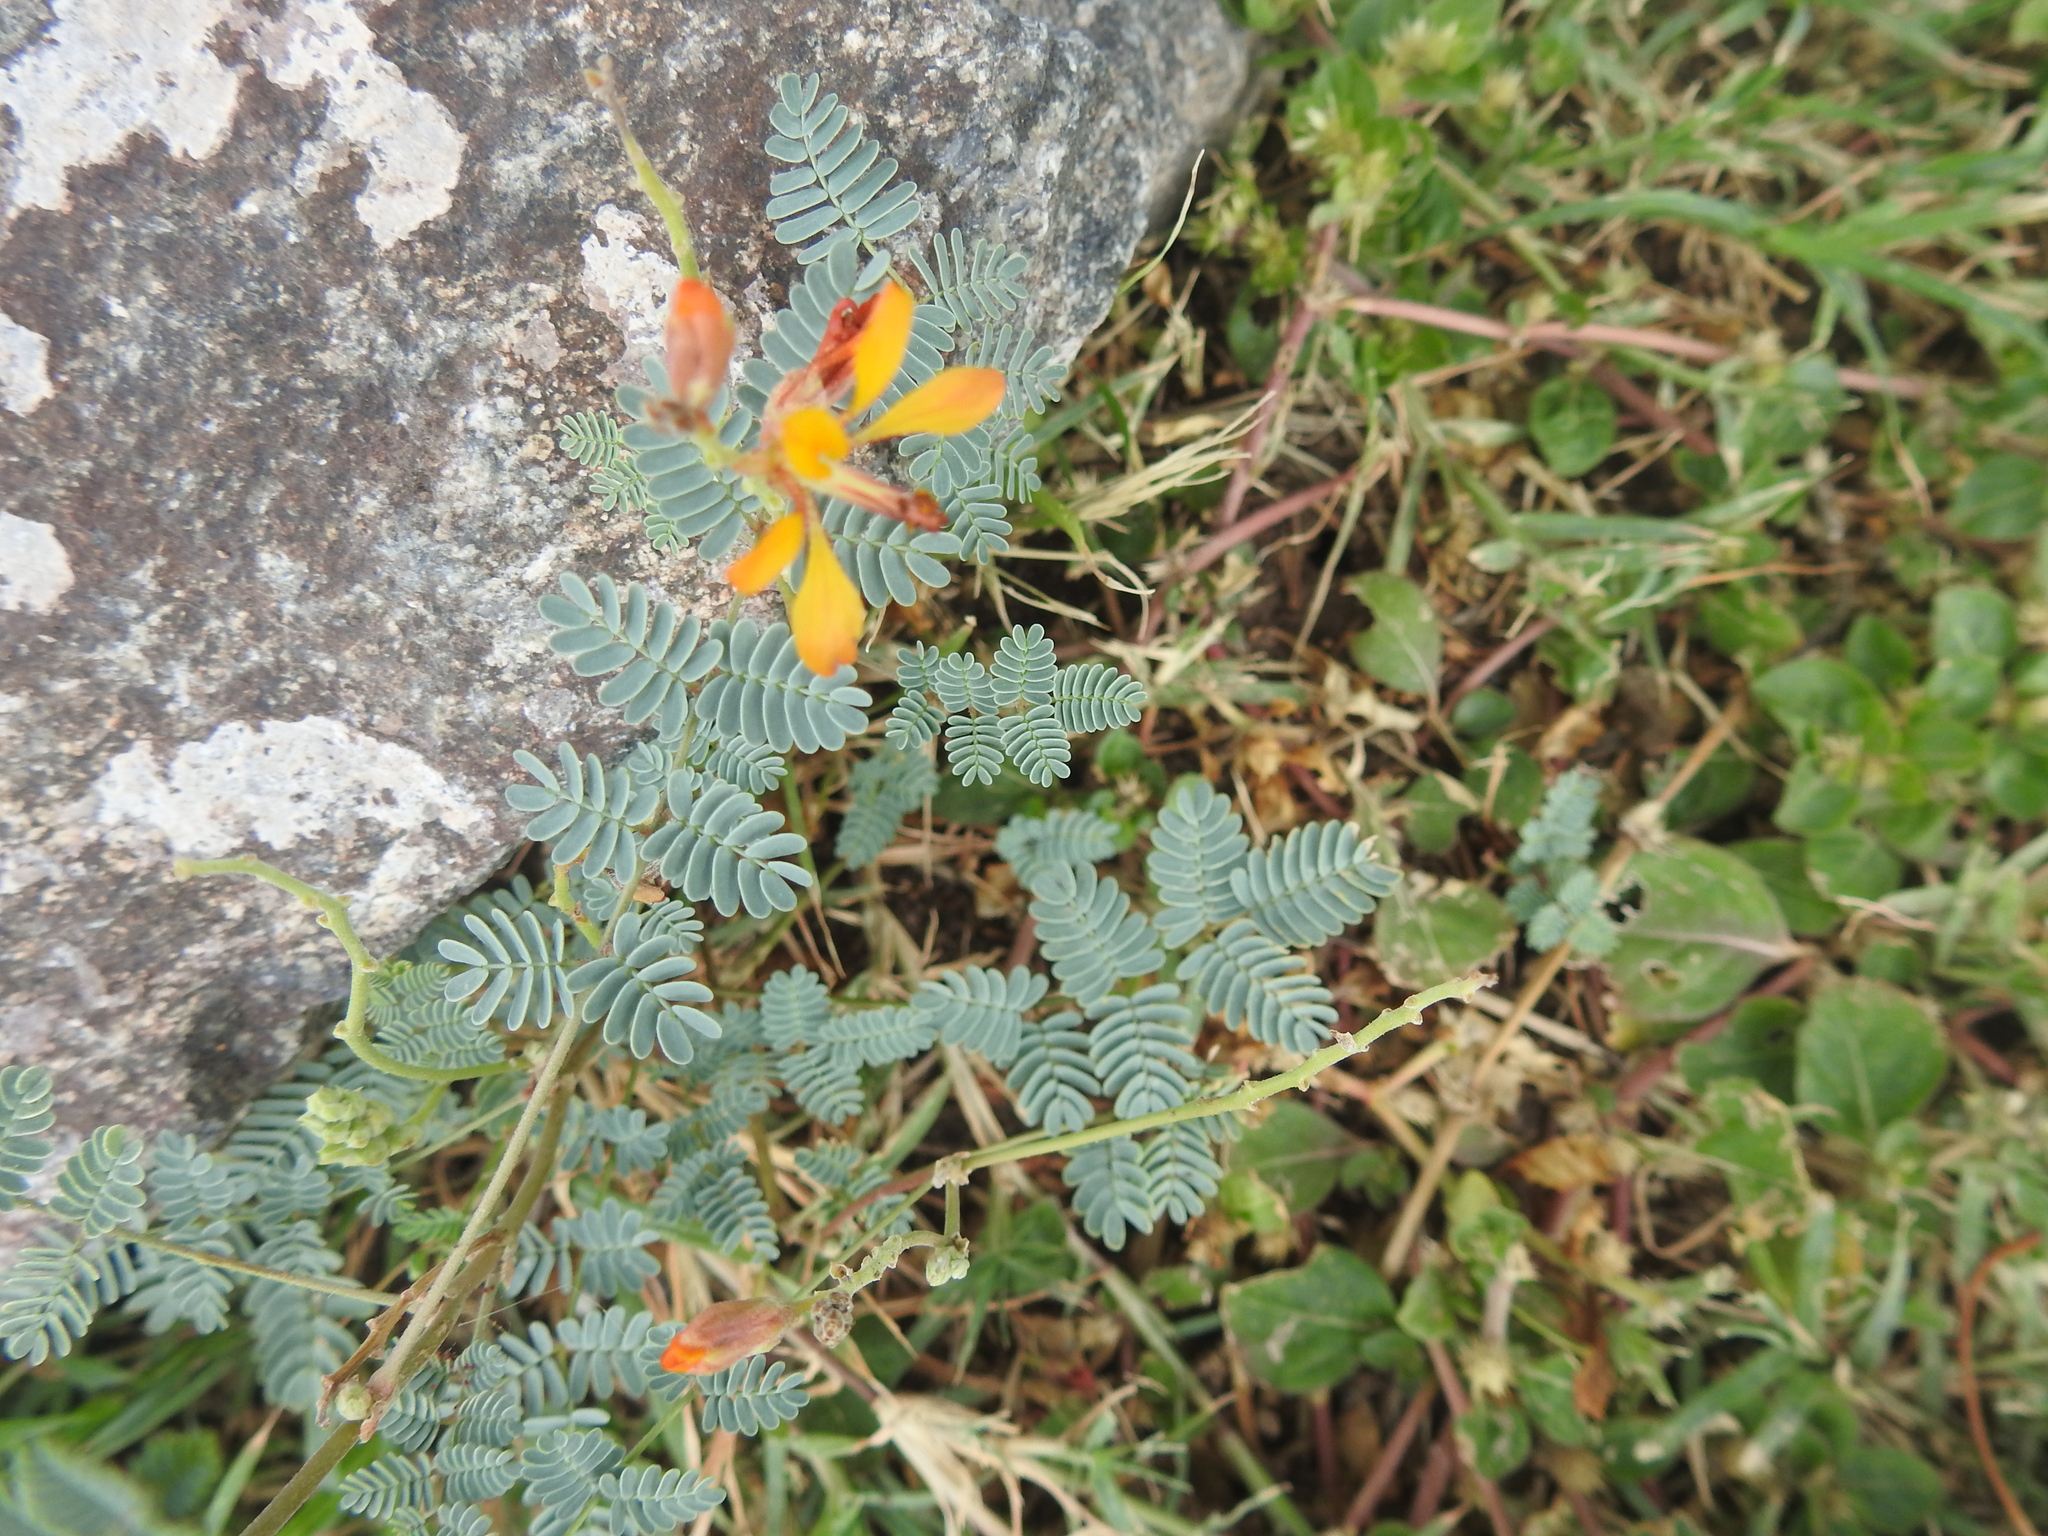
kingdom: Plantae
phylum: Tracheophyta
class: Magnoliopsida
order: Fabales
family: Fabaceae
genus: Hoffmannseggia
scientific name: Hoffmannseggia glauca
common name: Pignut
